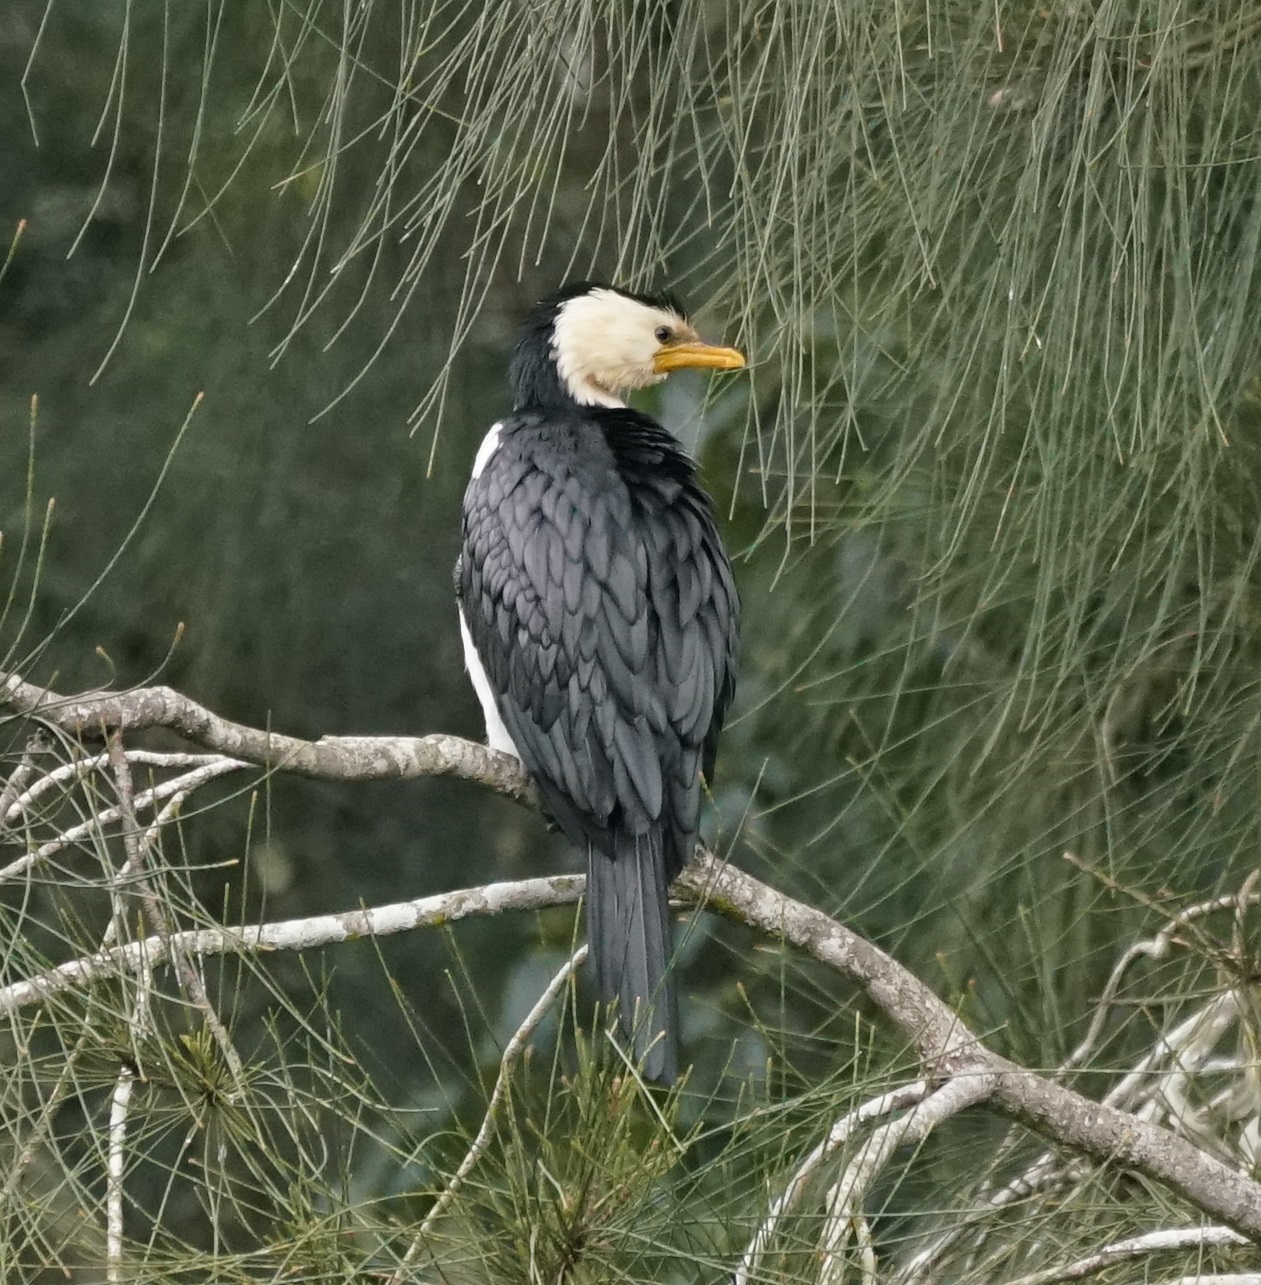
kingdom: Animalia
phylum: Chordata
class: Aves
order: Suliformes
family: Phalacrocoracidae
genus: Microcarbo
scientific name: Microcarbo melanoleucos
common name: Little pied cormorant
